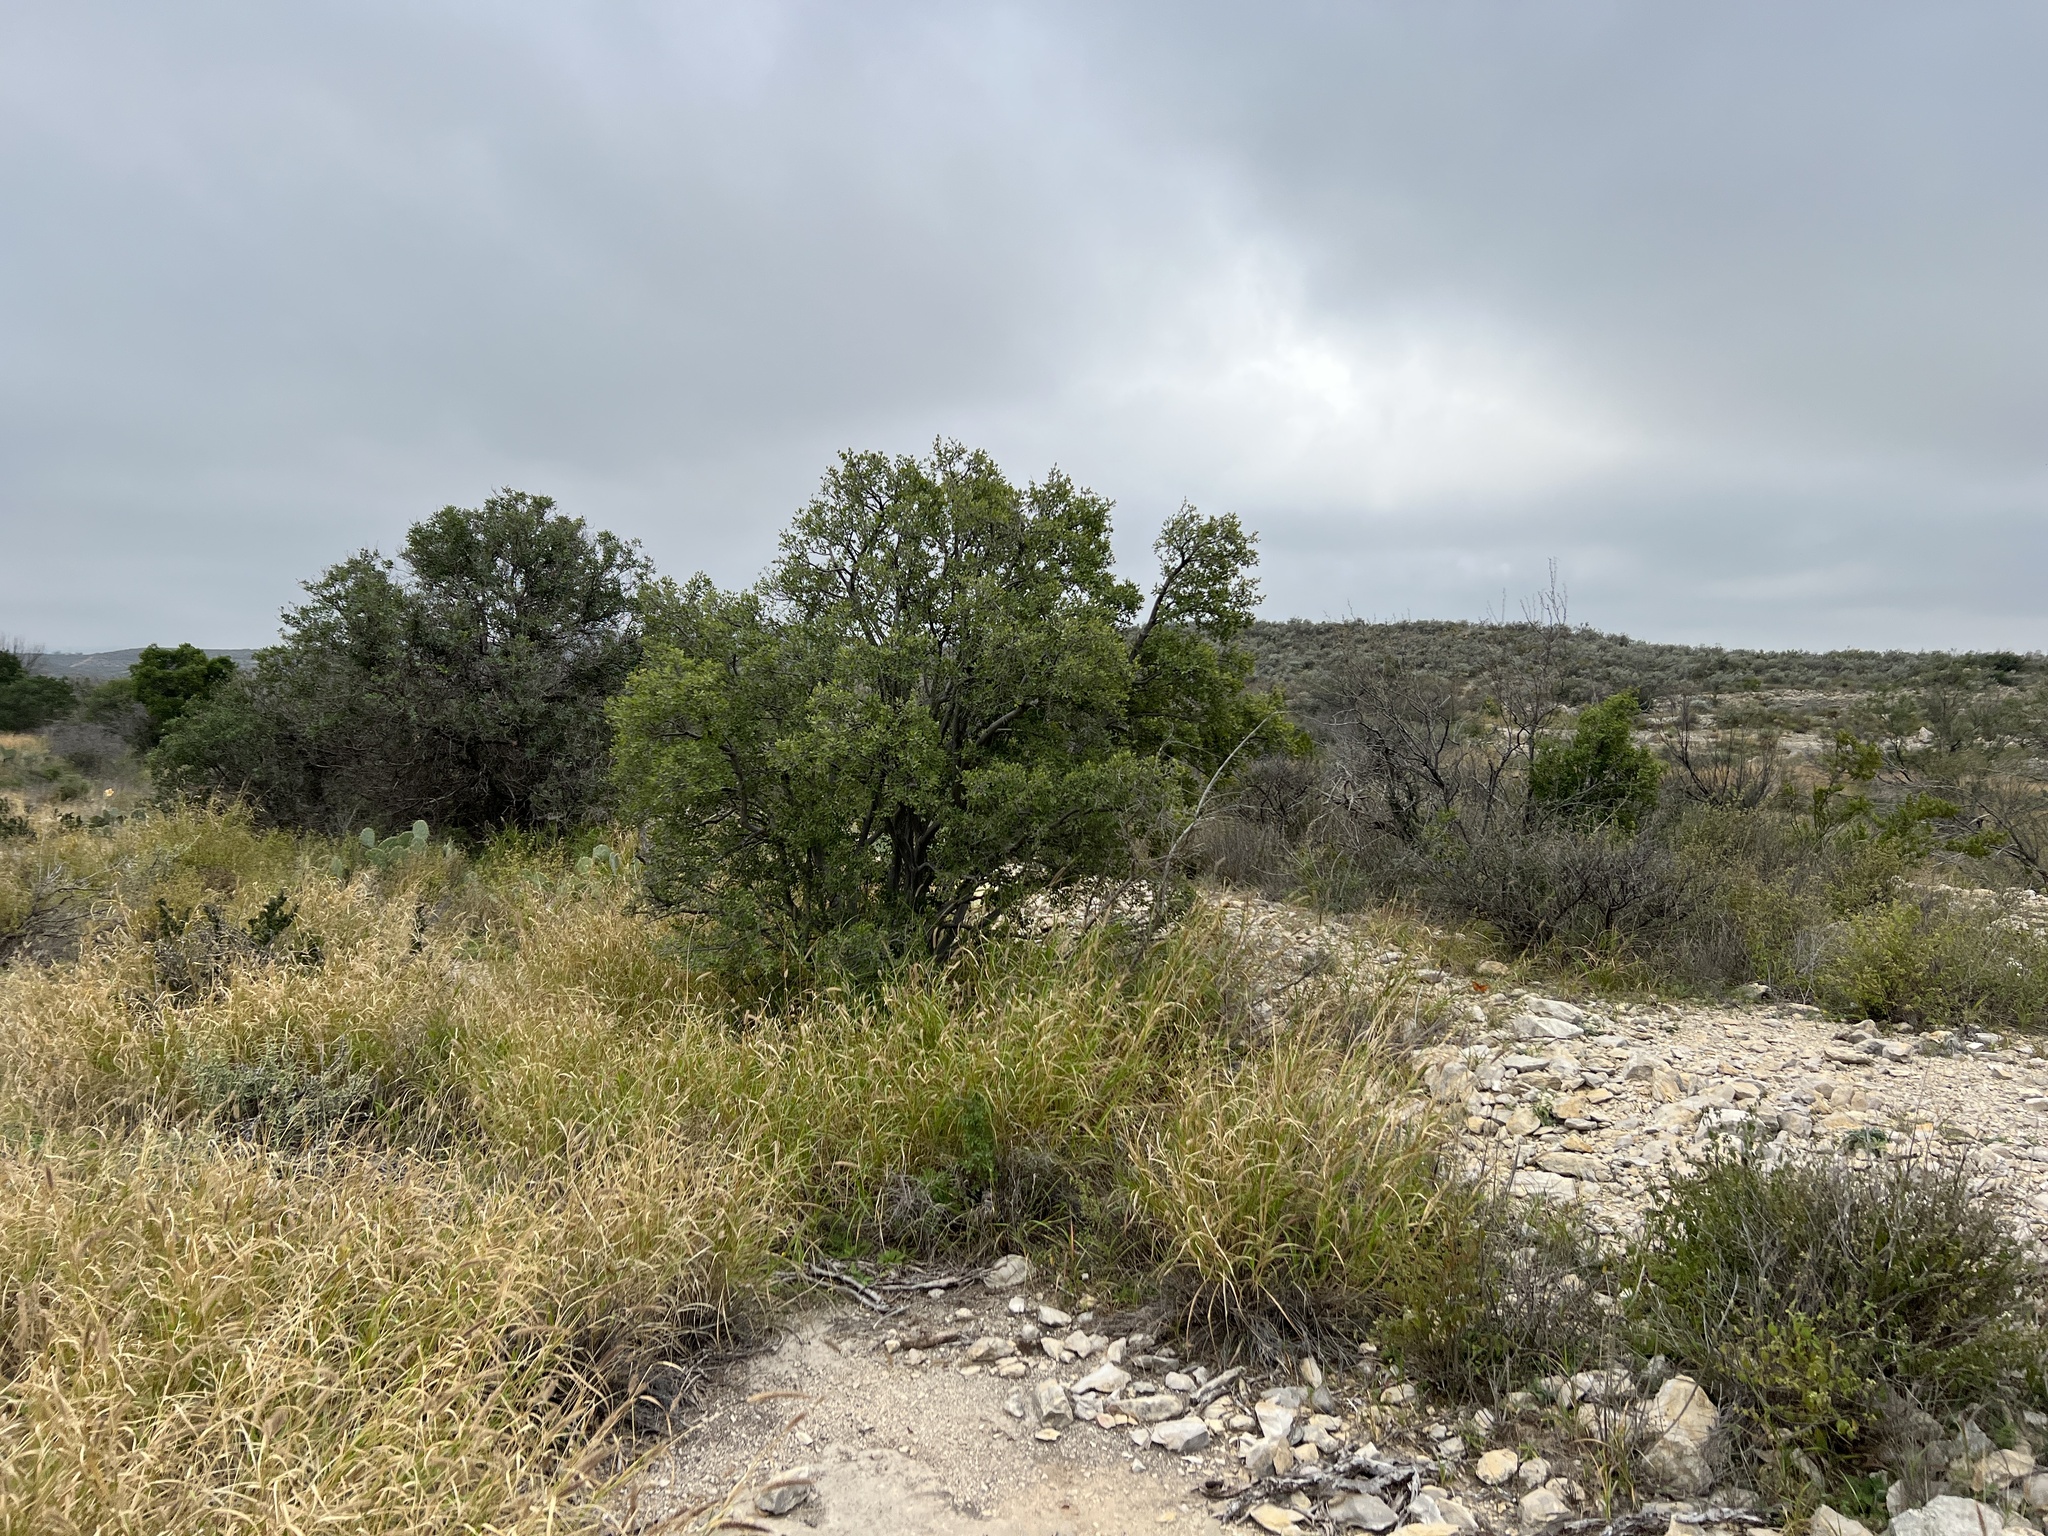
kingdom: Plantae
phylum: Tracheophyta
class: Magnoliopsida
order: Ericales
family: Ebenaceae
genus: Diospyros
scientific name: Diospyros texana
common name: Texas persimmon
